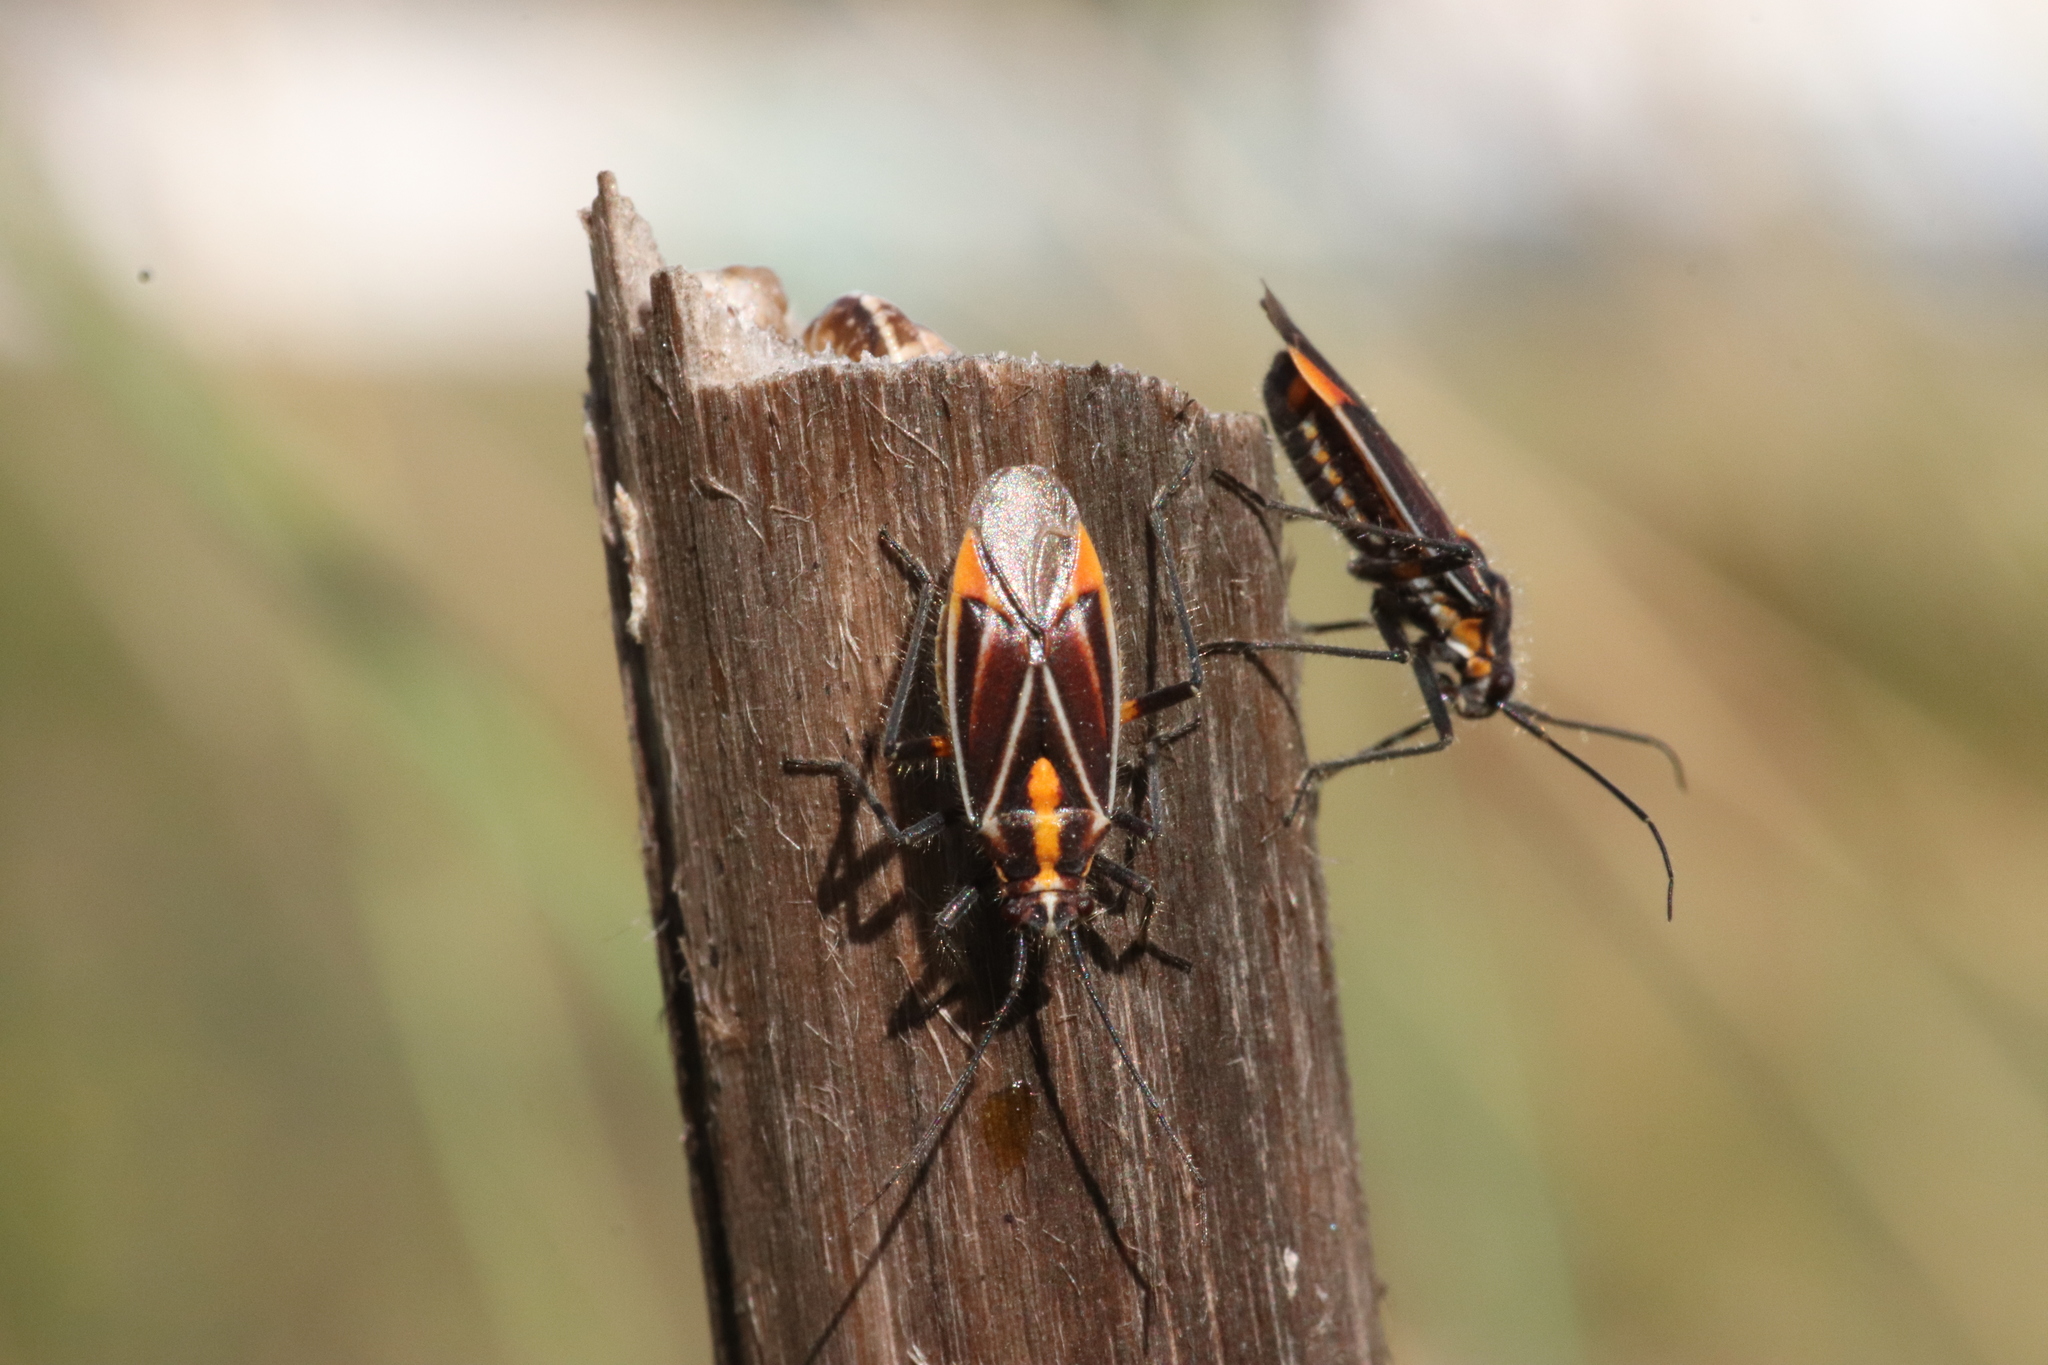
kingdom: Animalia
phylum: Arthropoda
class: Insecta
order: Hemiptera
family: Miridae
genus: Horistus
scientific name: Horistus orientalis
